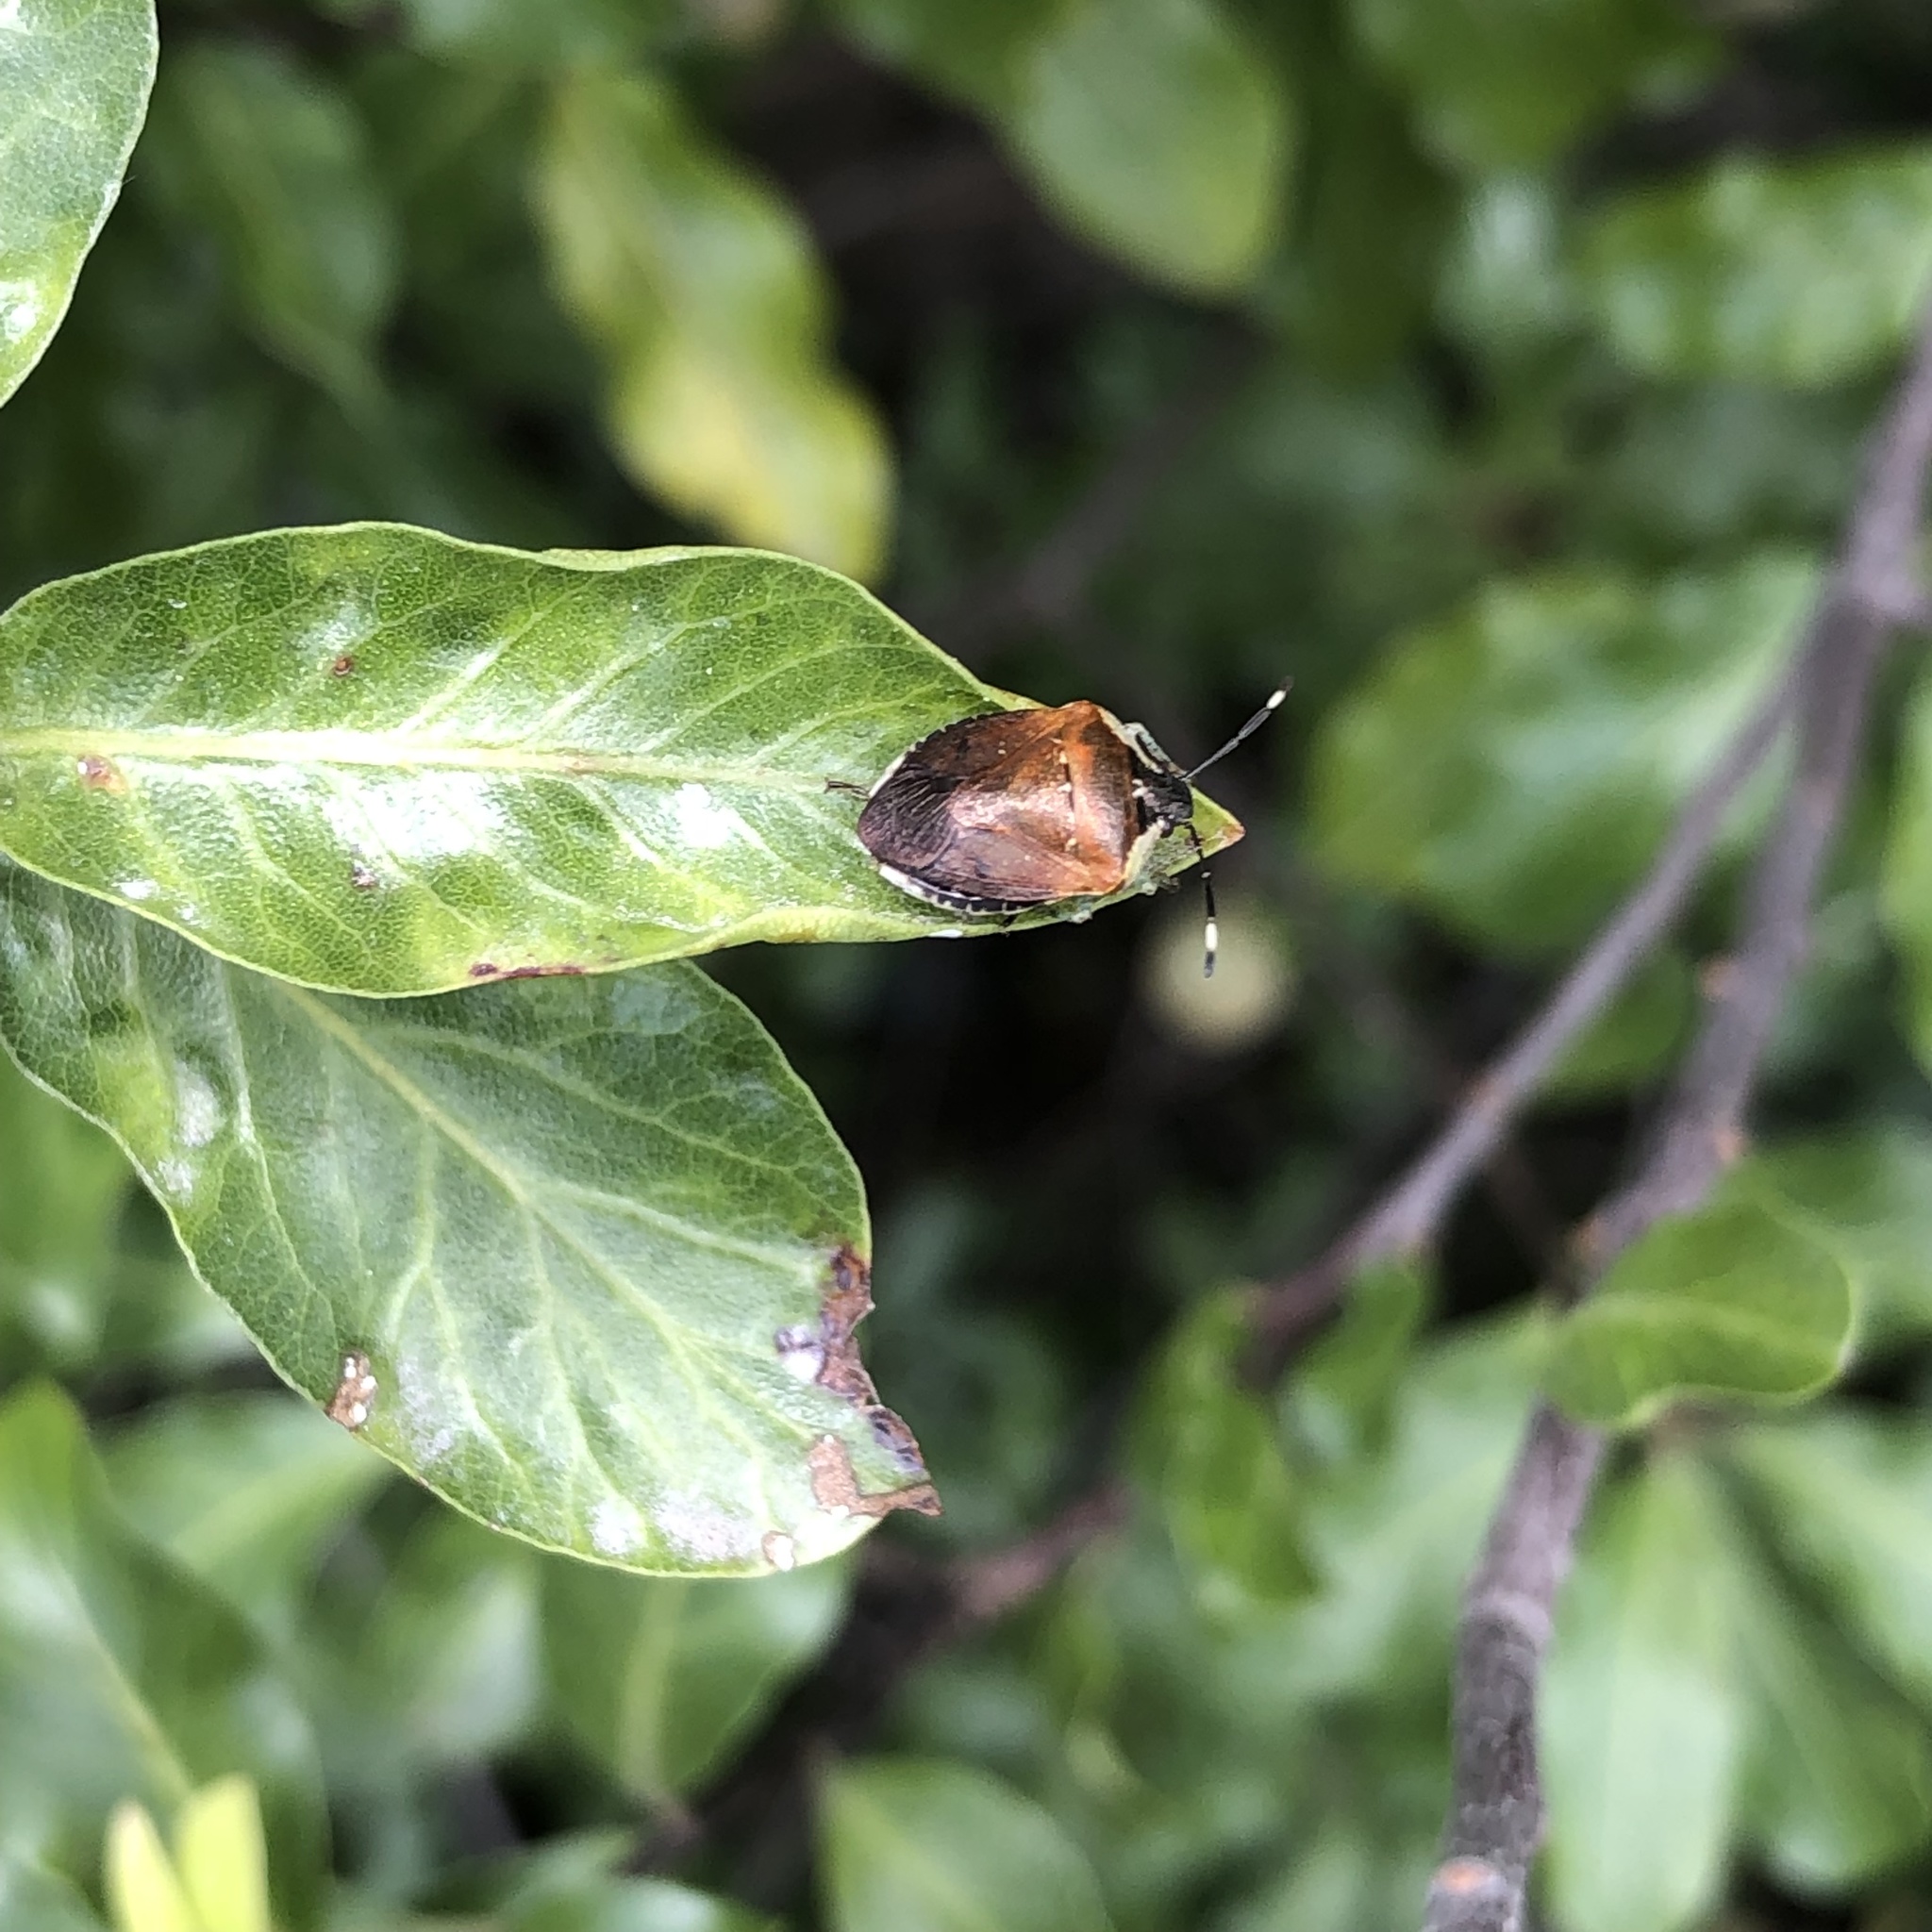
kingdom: Animalia
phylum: Arthropoda
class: Insecta
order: Hemiptera
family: Pentatomidae
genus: Monteithiella
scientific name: Monteithiella
